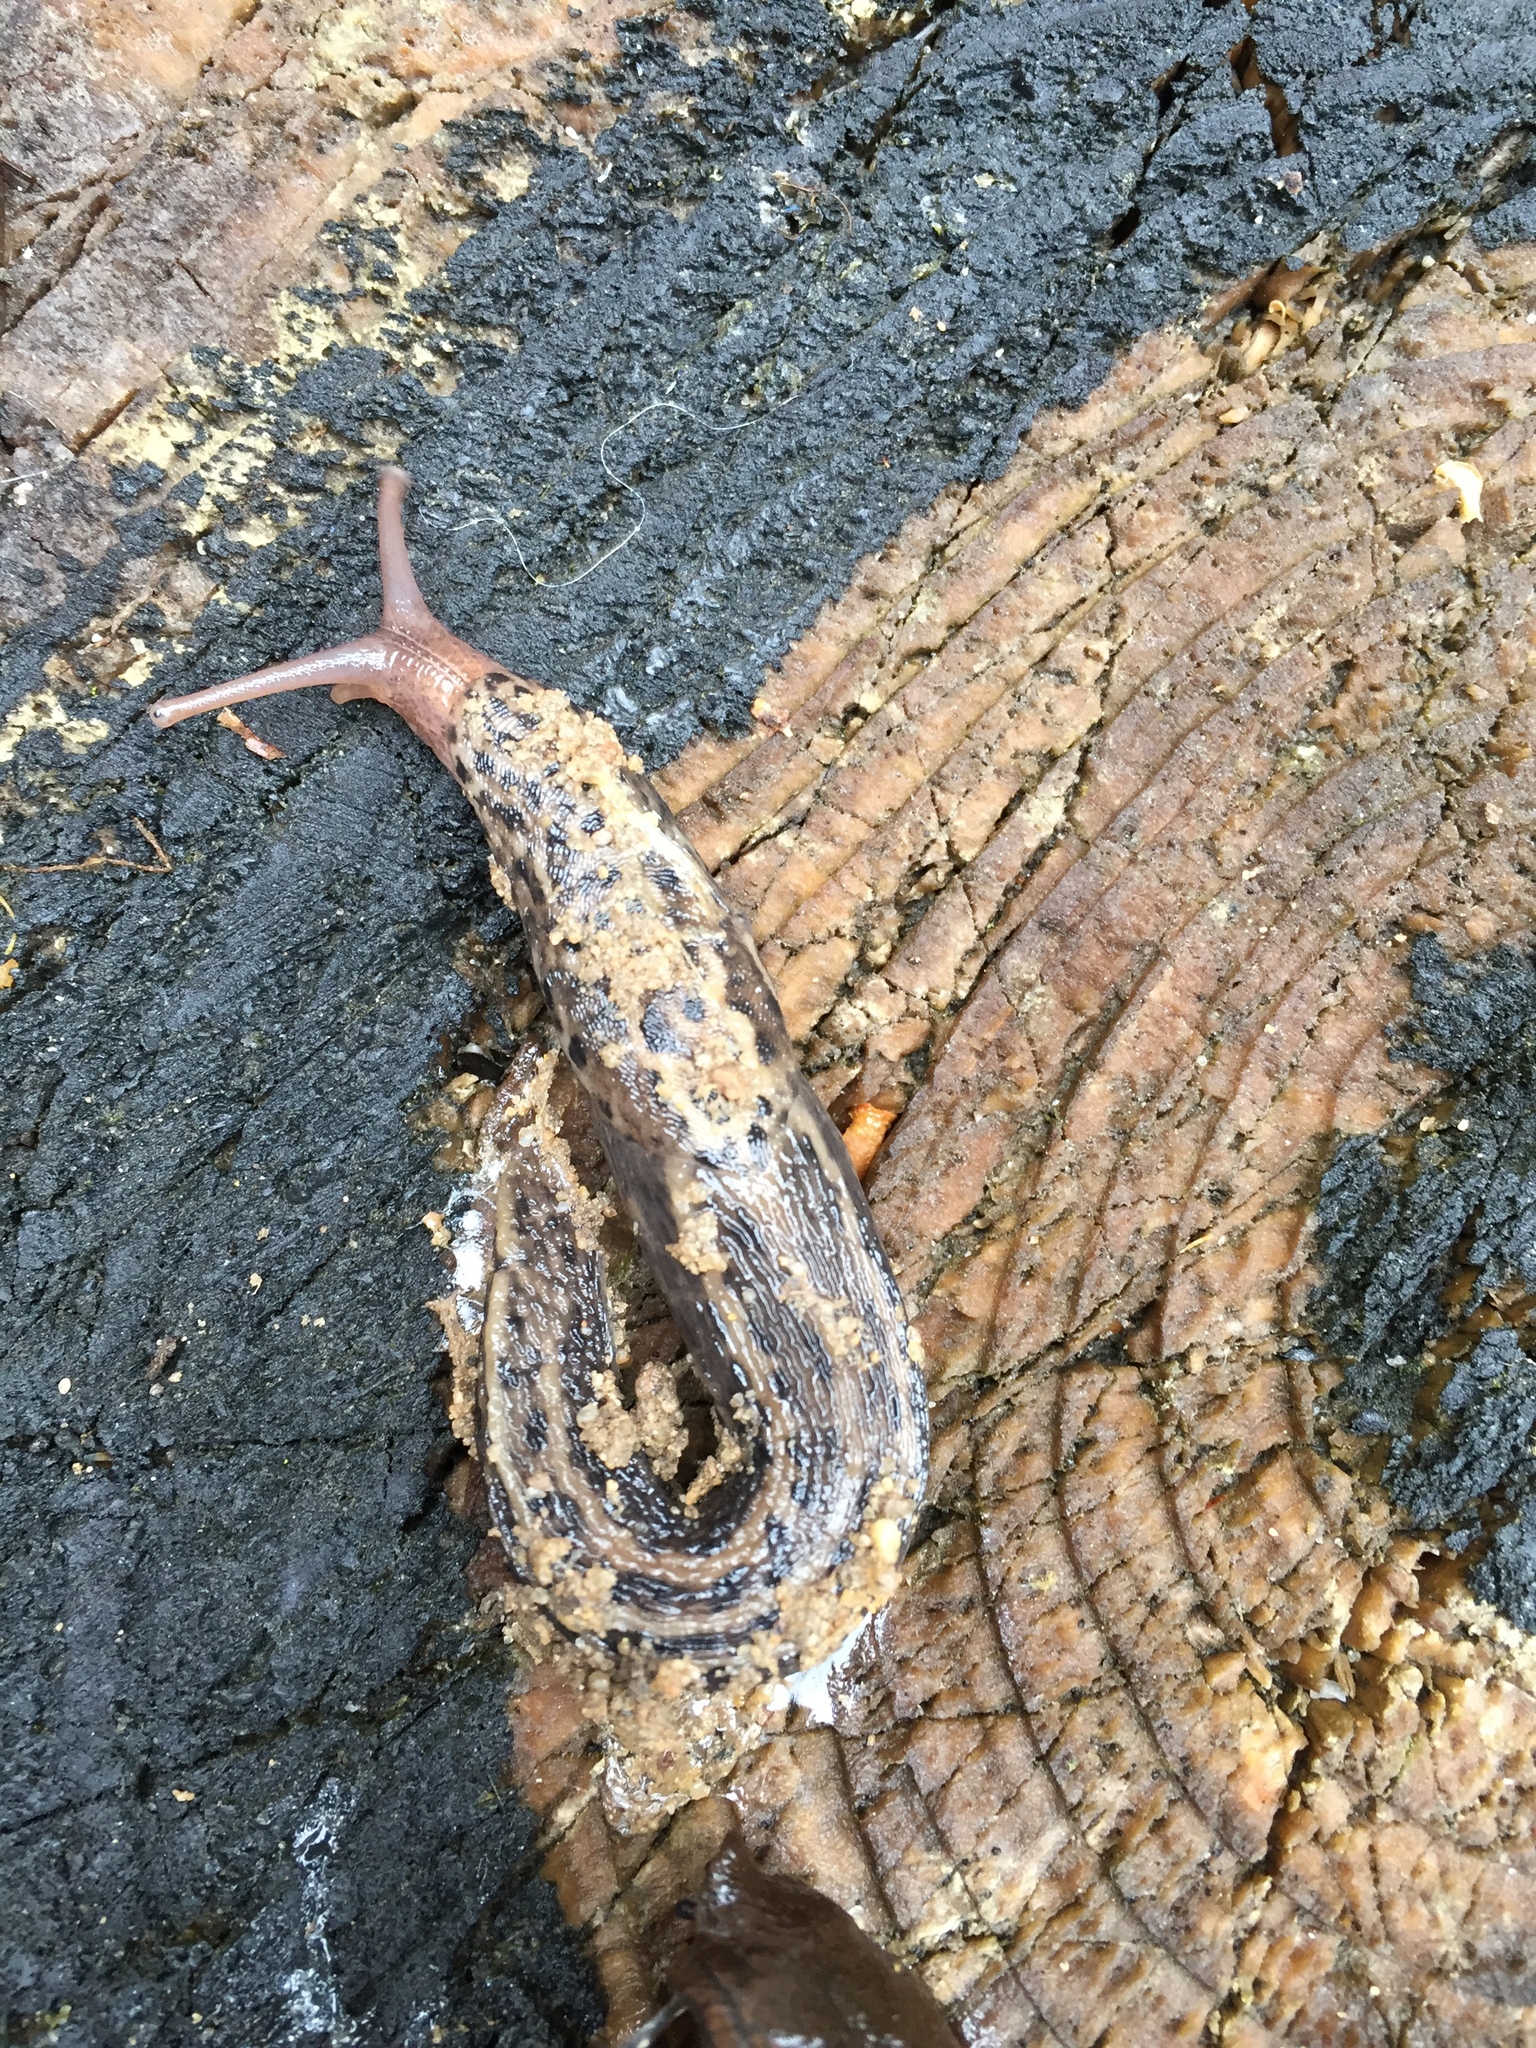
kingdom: Animalia
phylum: Mollusca
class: Gastropoda
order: Stylommatophora
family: Limacidae
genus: Limax
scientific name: Limax maximus
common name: Great grey slug
